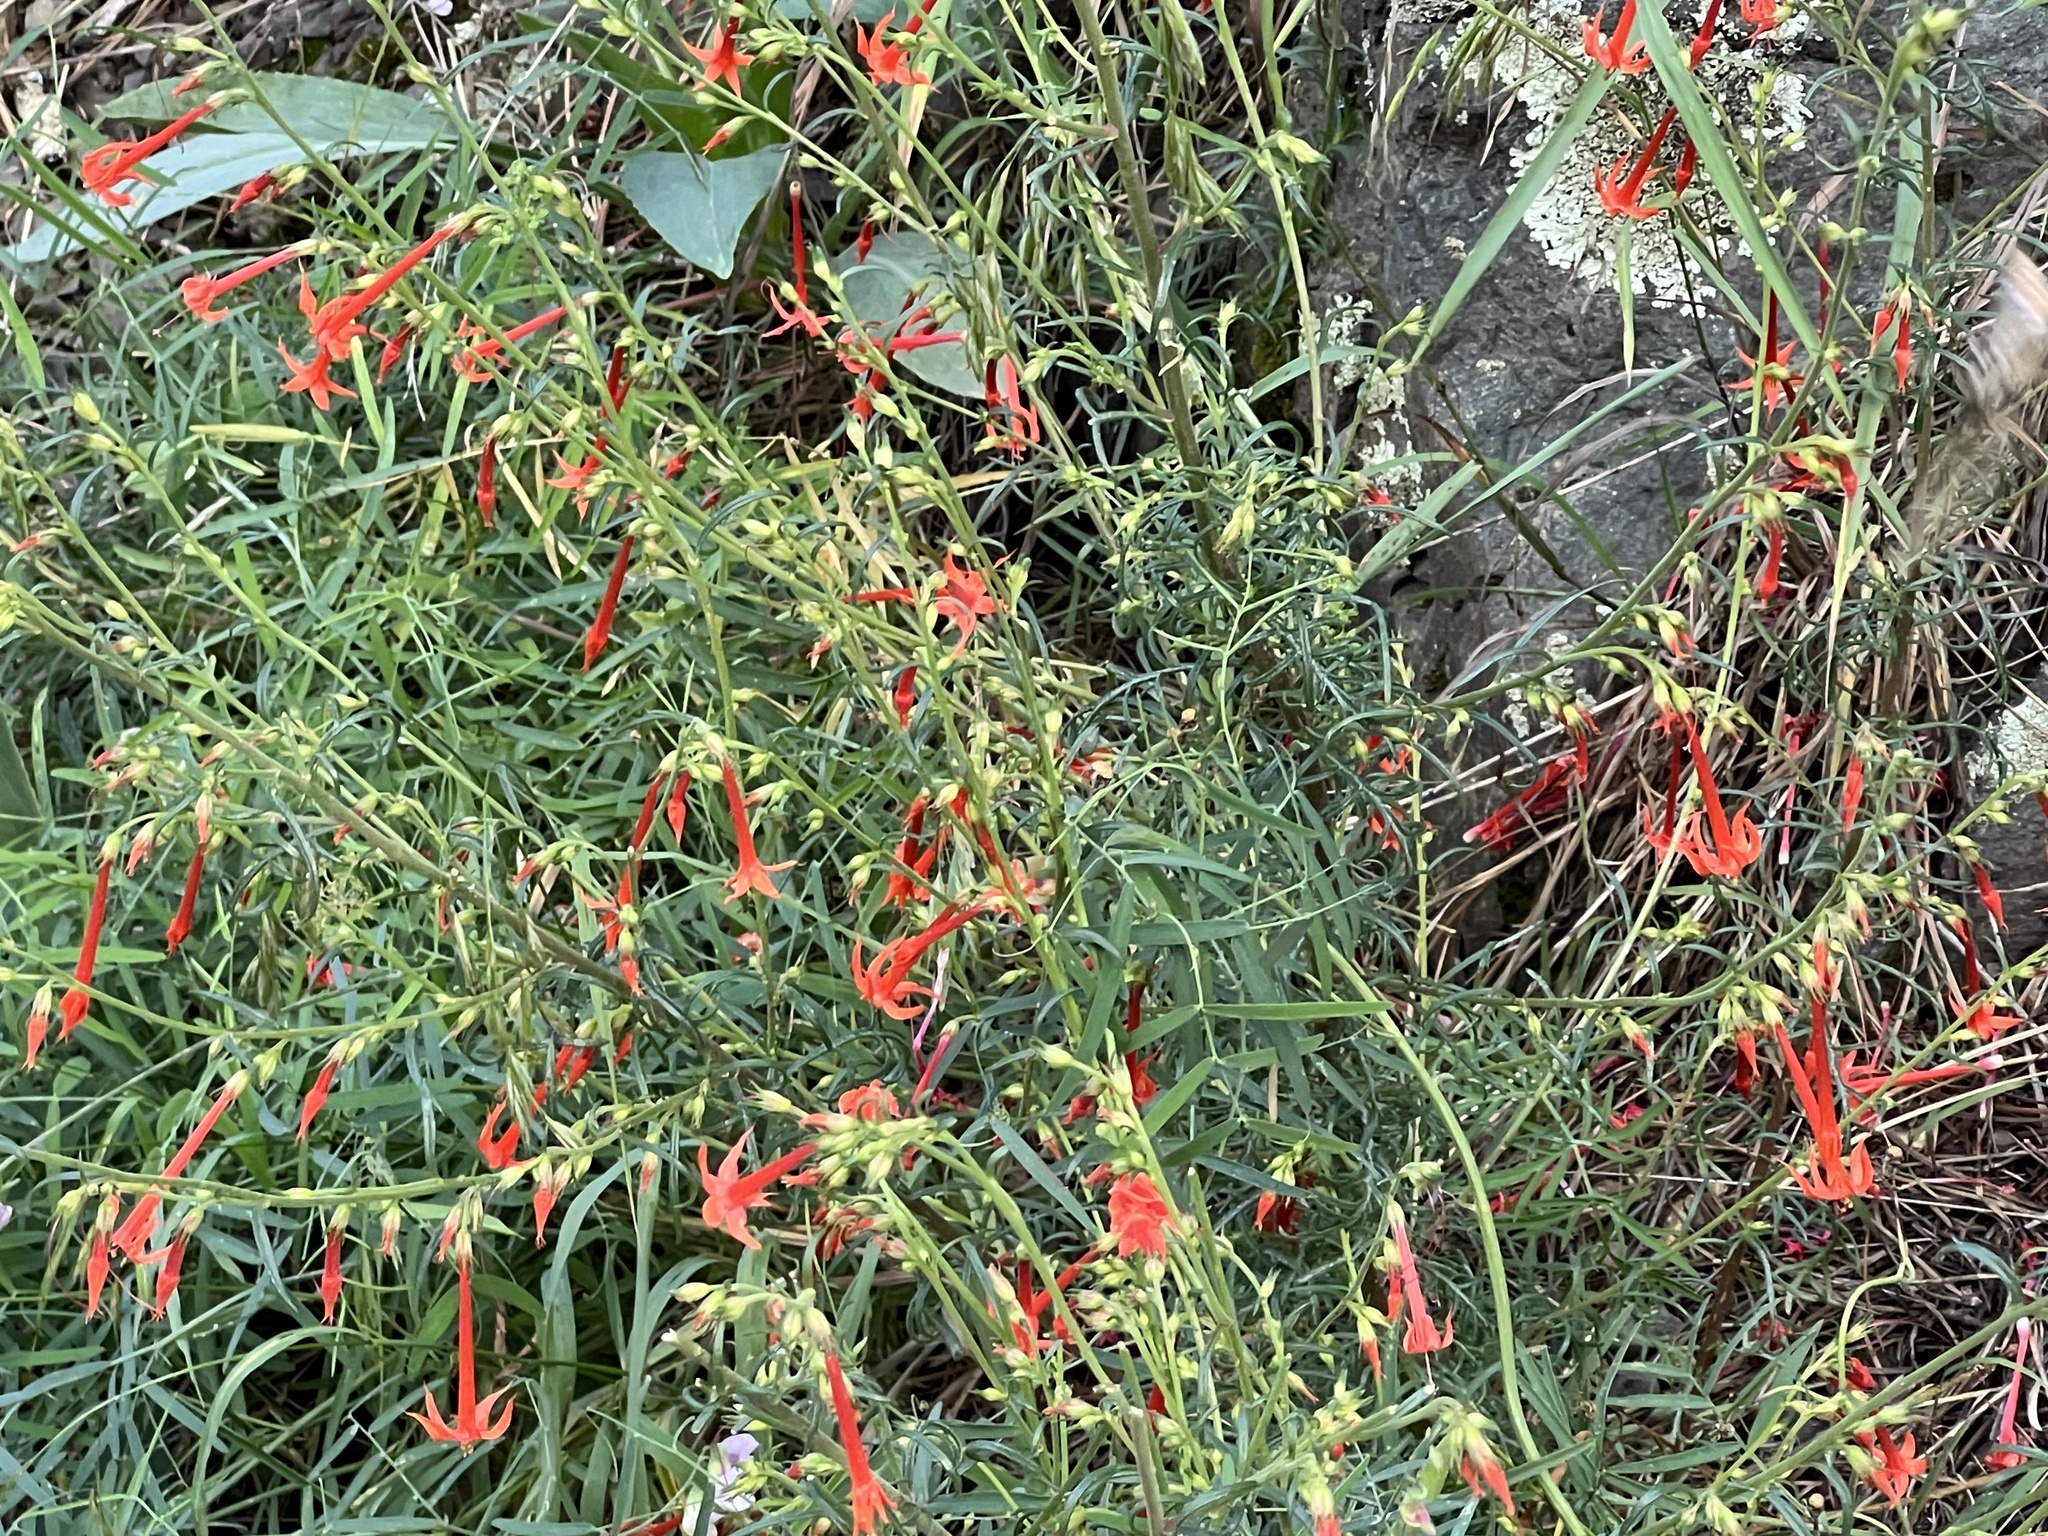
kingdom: Plantae
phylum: Tracheophyta
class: Magnoliopsida
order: Ericales
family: Polemoniaceae
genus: Ipomopsis
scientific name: Ipomopsis aggregata
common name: Scarlet gilia
